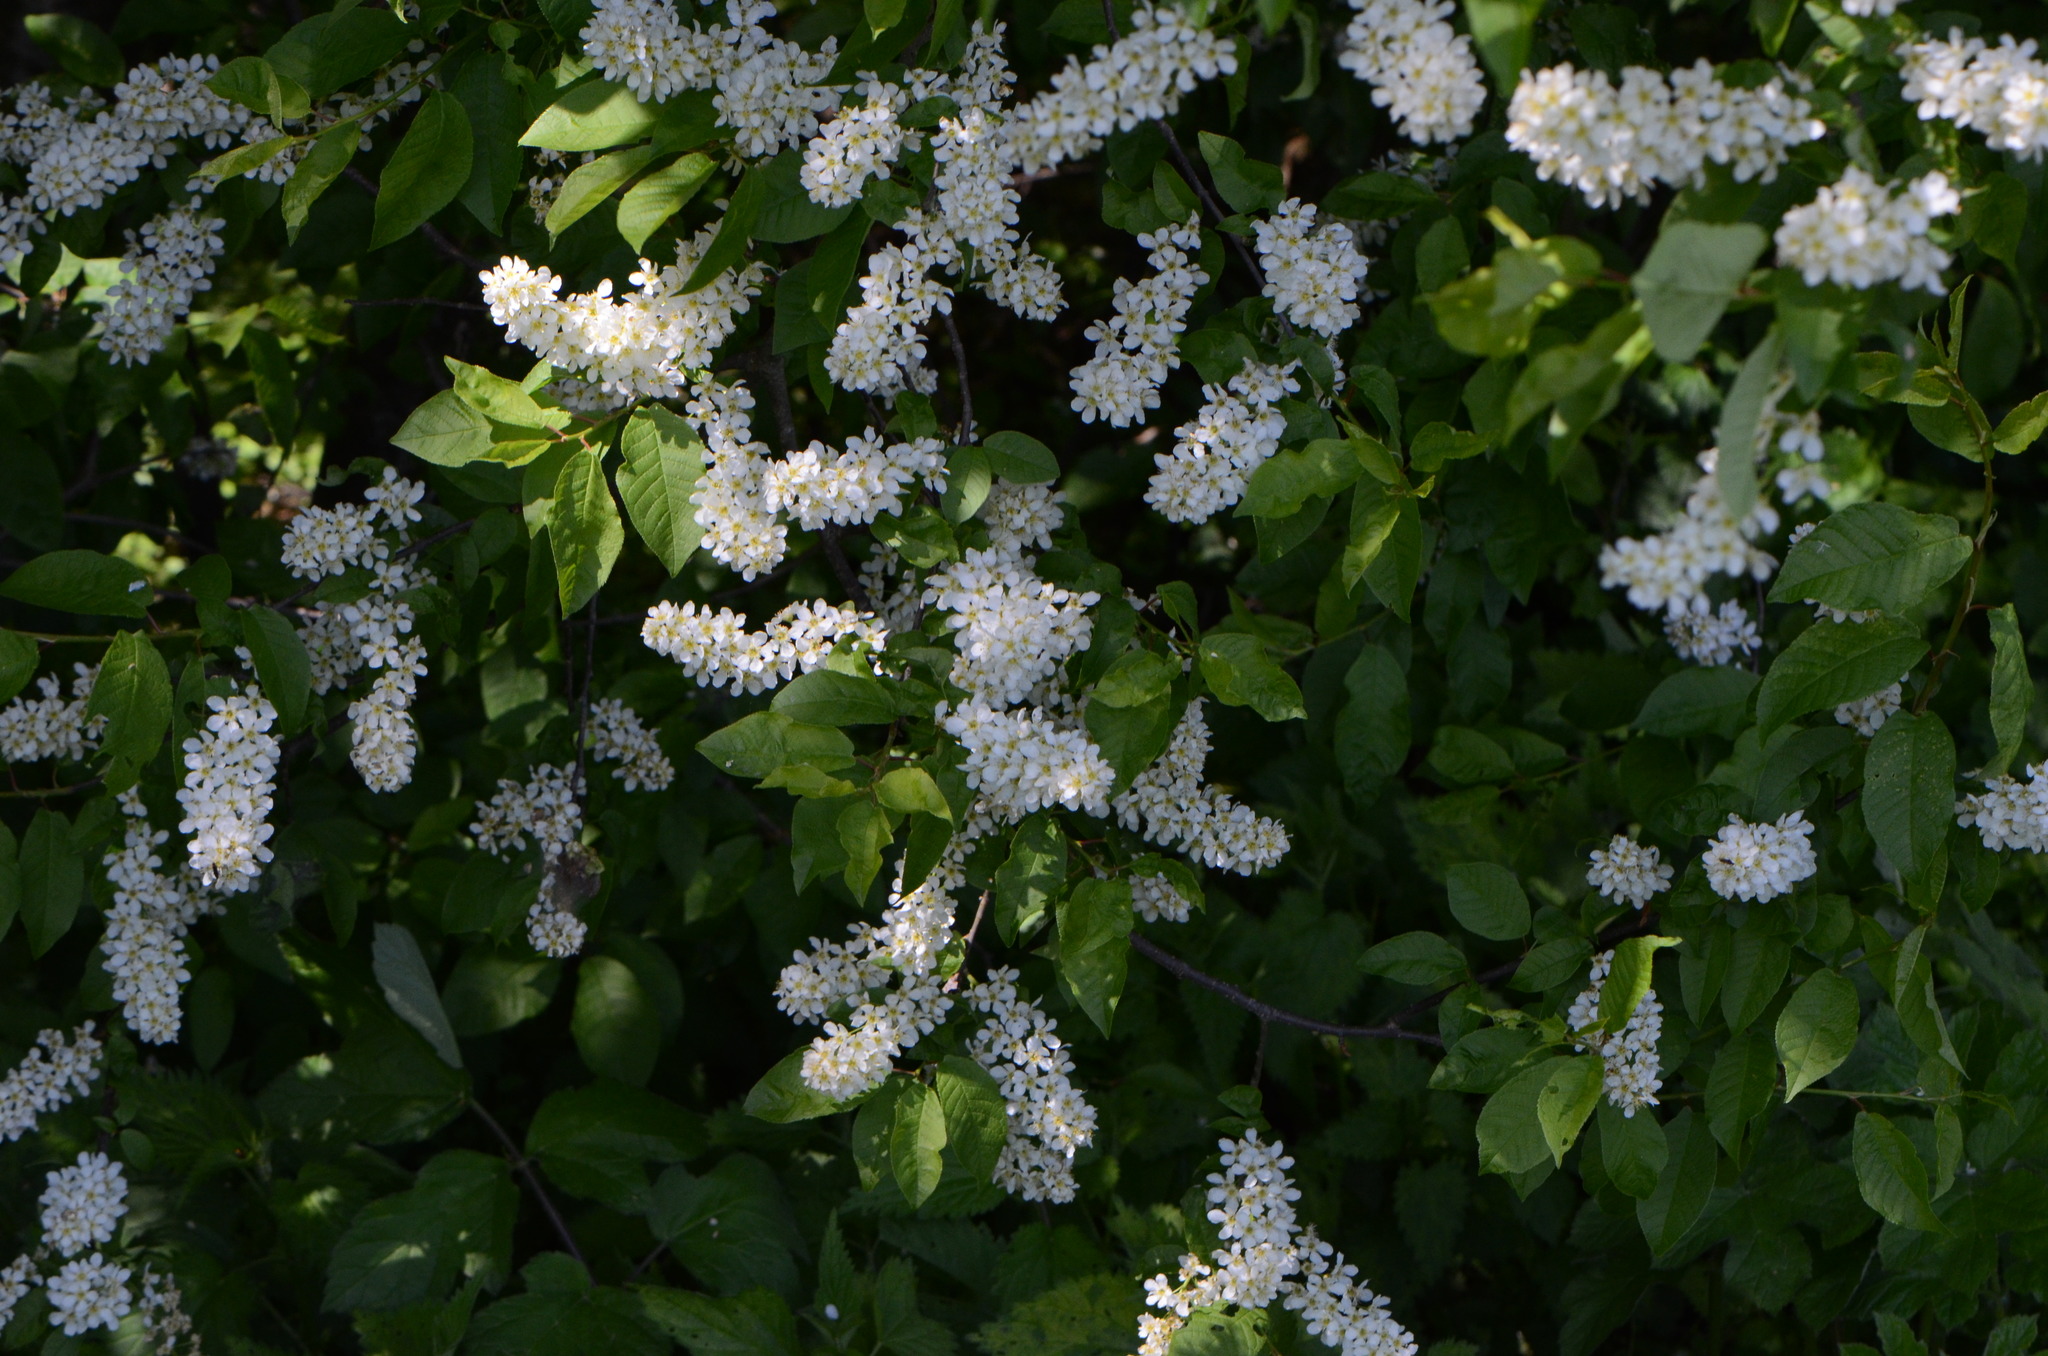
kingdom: Plantae
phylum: Tracheophyta
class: Magnoliopsida
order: Rosales
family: Rosaceae
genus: Prunus
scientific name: Prunus padus
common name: Bird cherry
